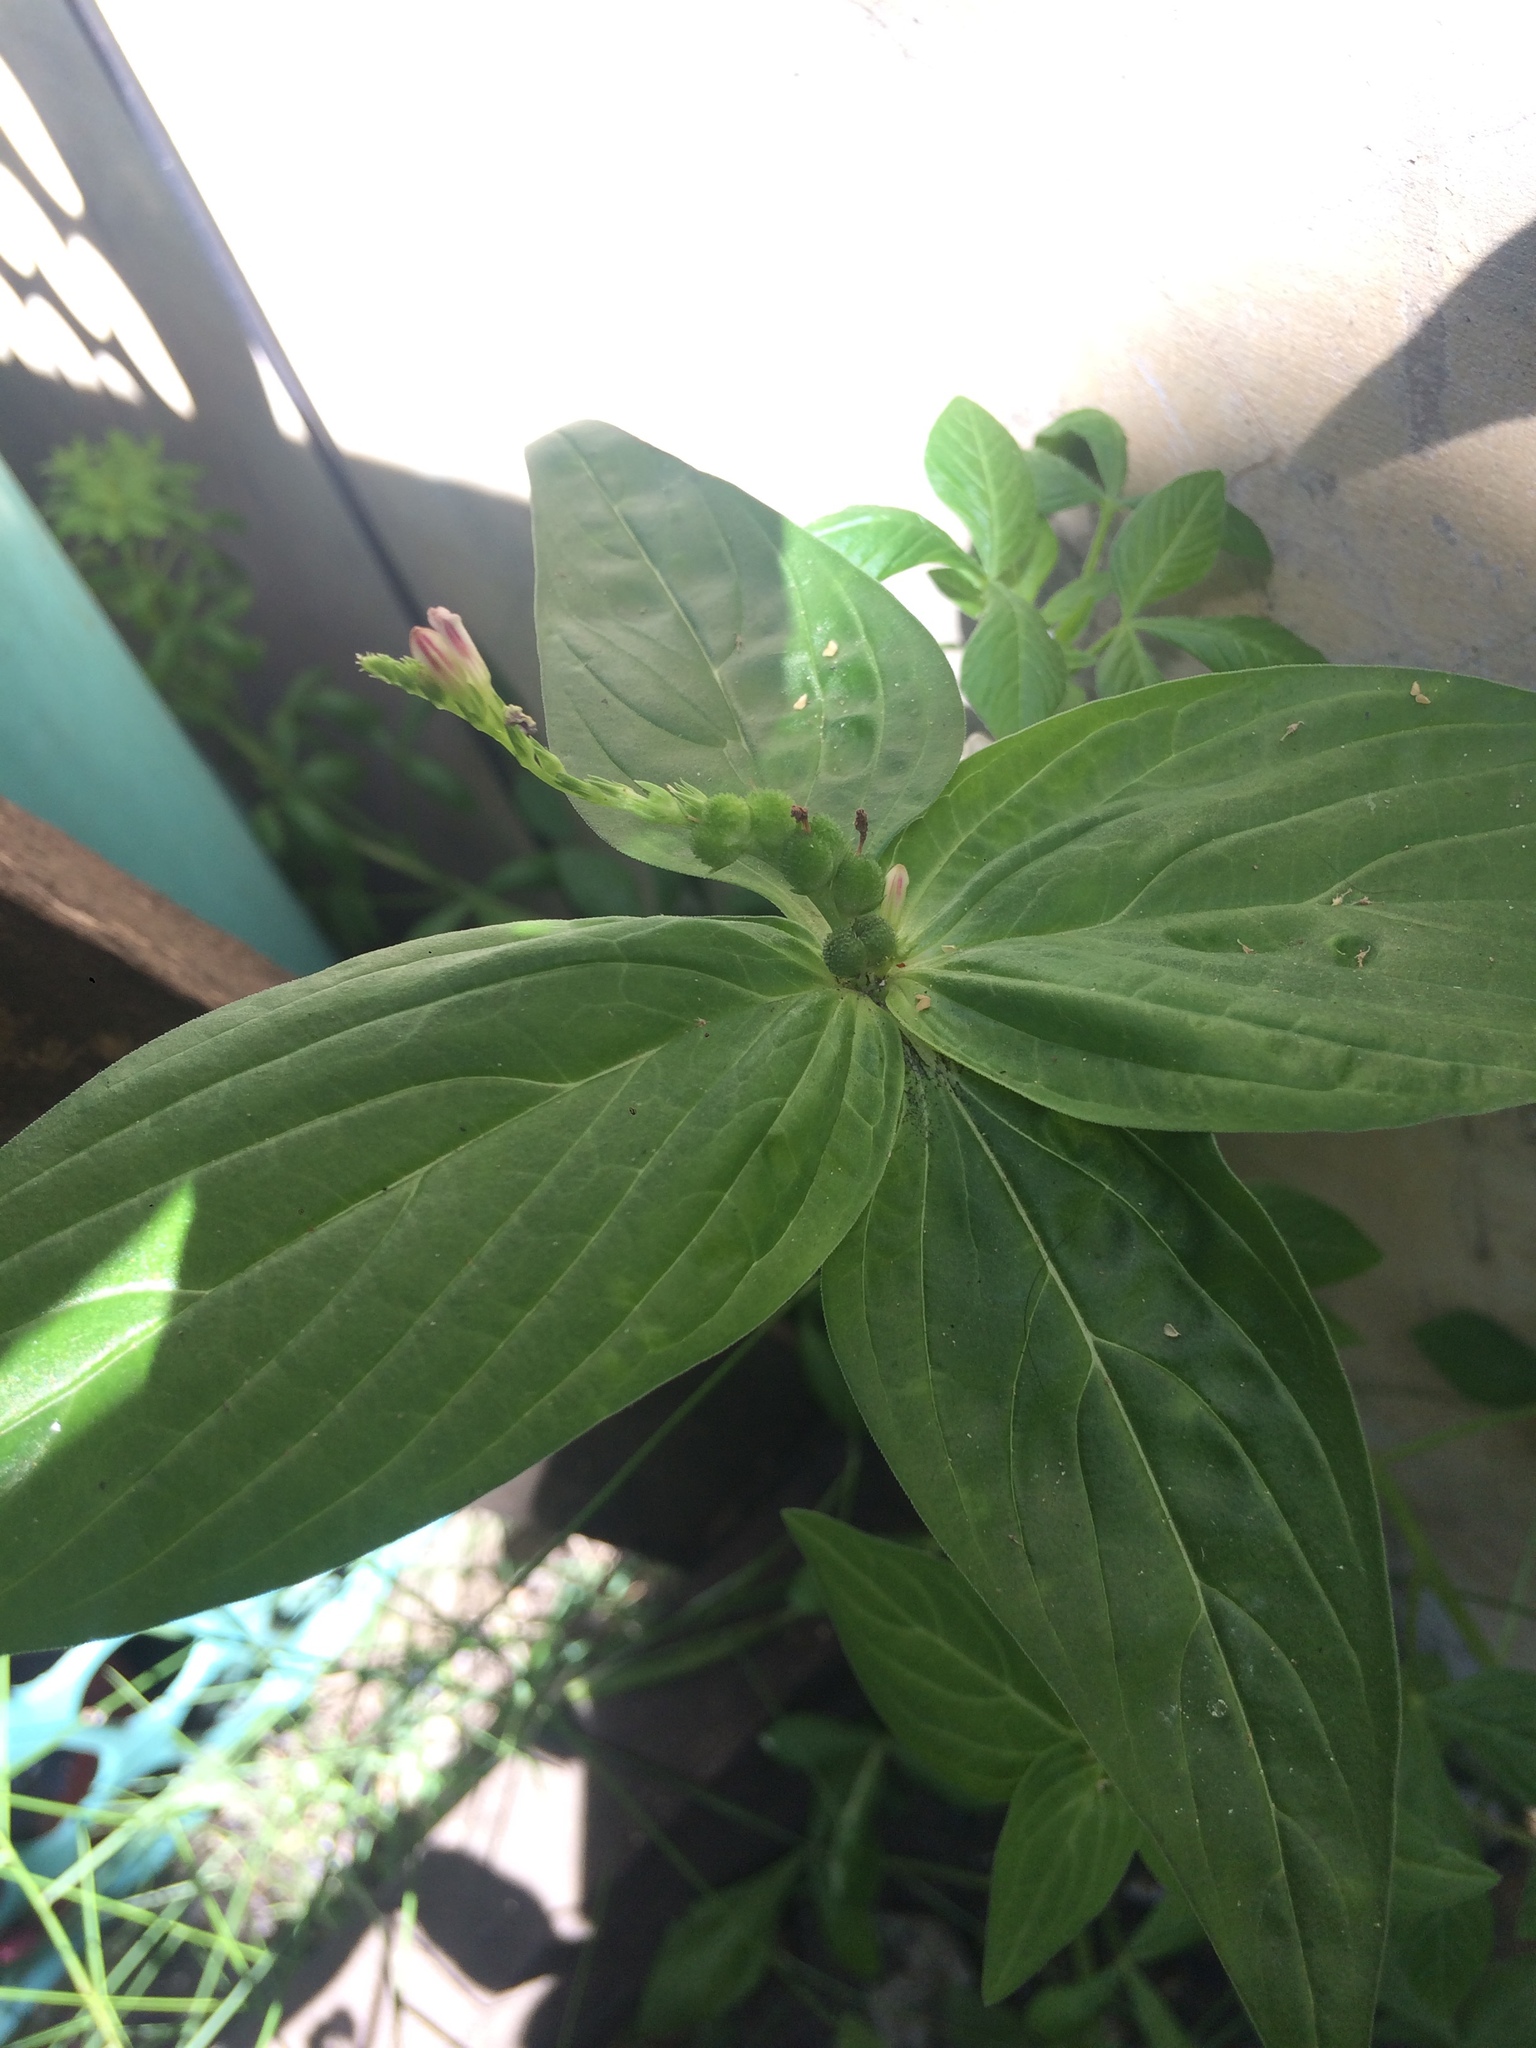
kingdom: Plantae
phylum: Tracheophyta
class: Magnoliopsida
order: Gentianales
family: Loganiaceae
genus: Spigelia
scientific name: Spigelia anthelmia
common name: West indian-pink
